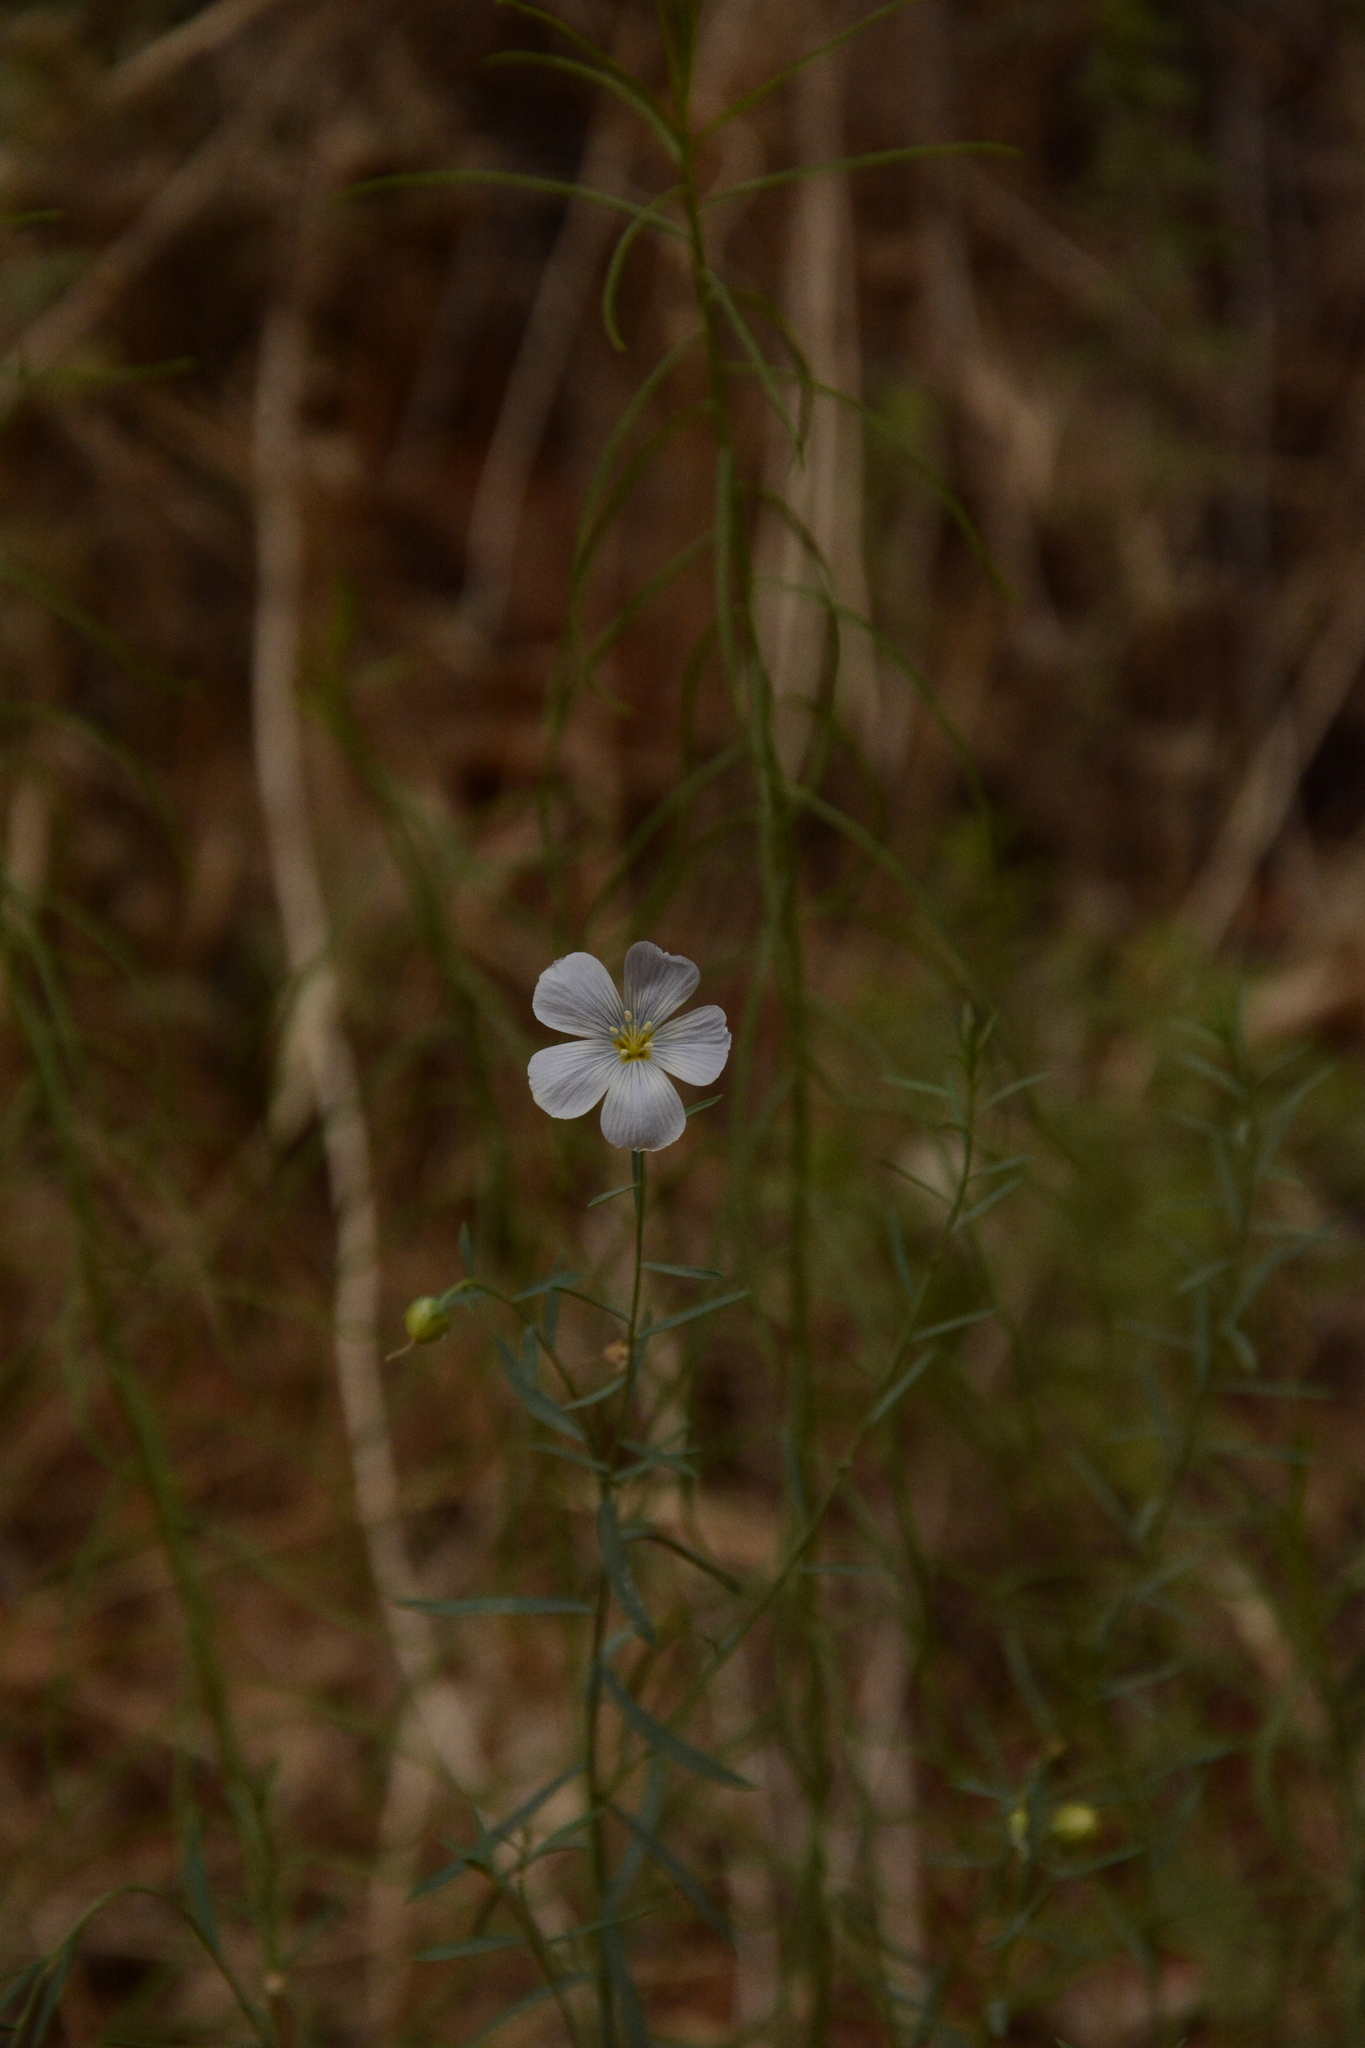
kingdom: Plantae
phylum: Tracheophyta
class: Magnoliopsida
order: Malpighiales
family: Linaceae
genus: Linum
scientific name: Linum lewisii
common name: Prairie flax
